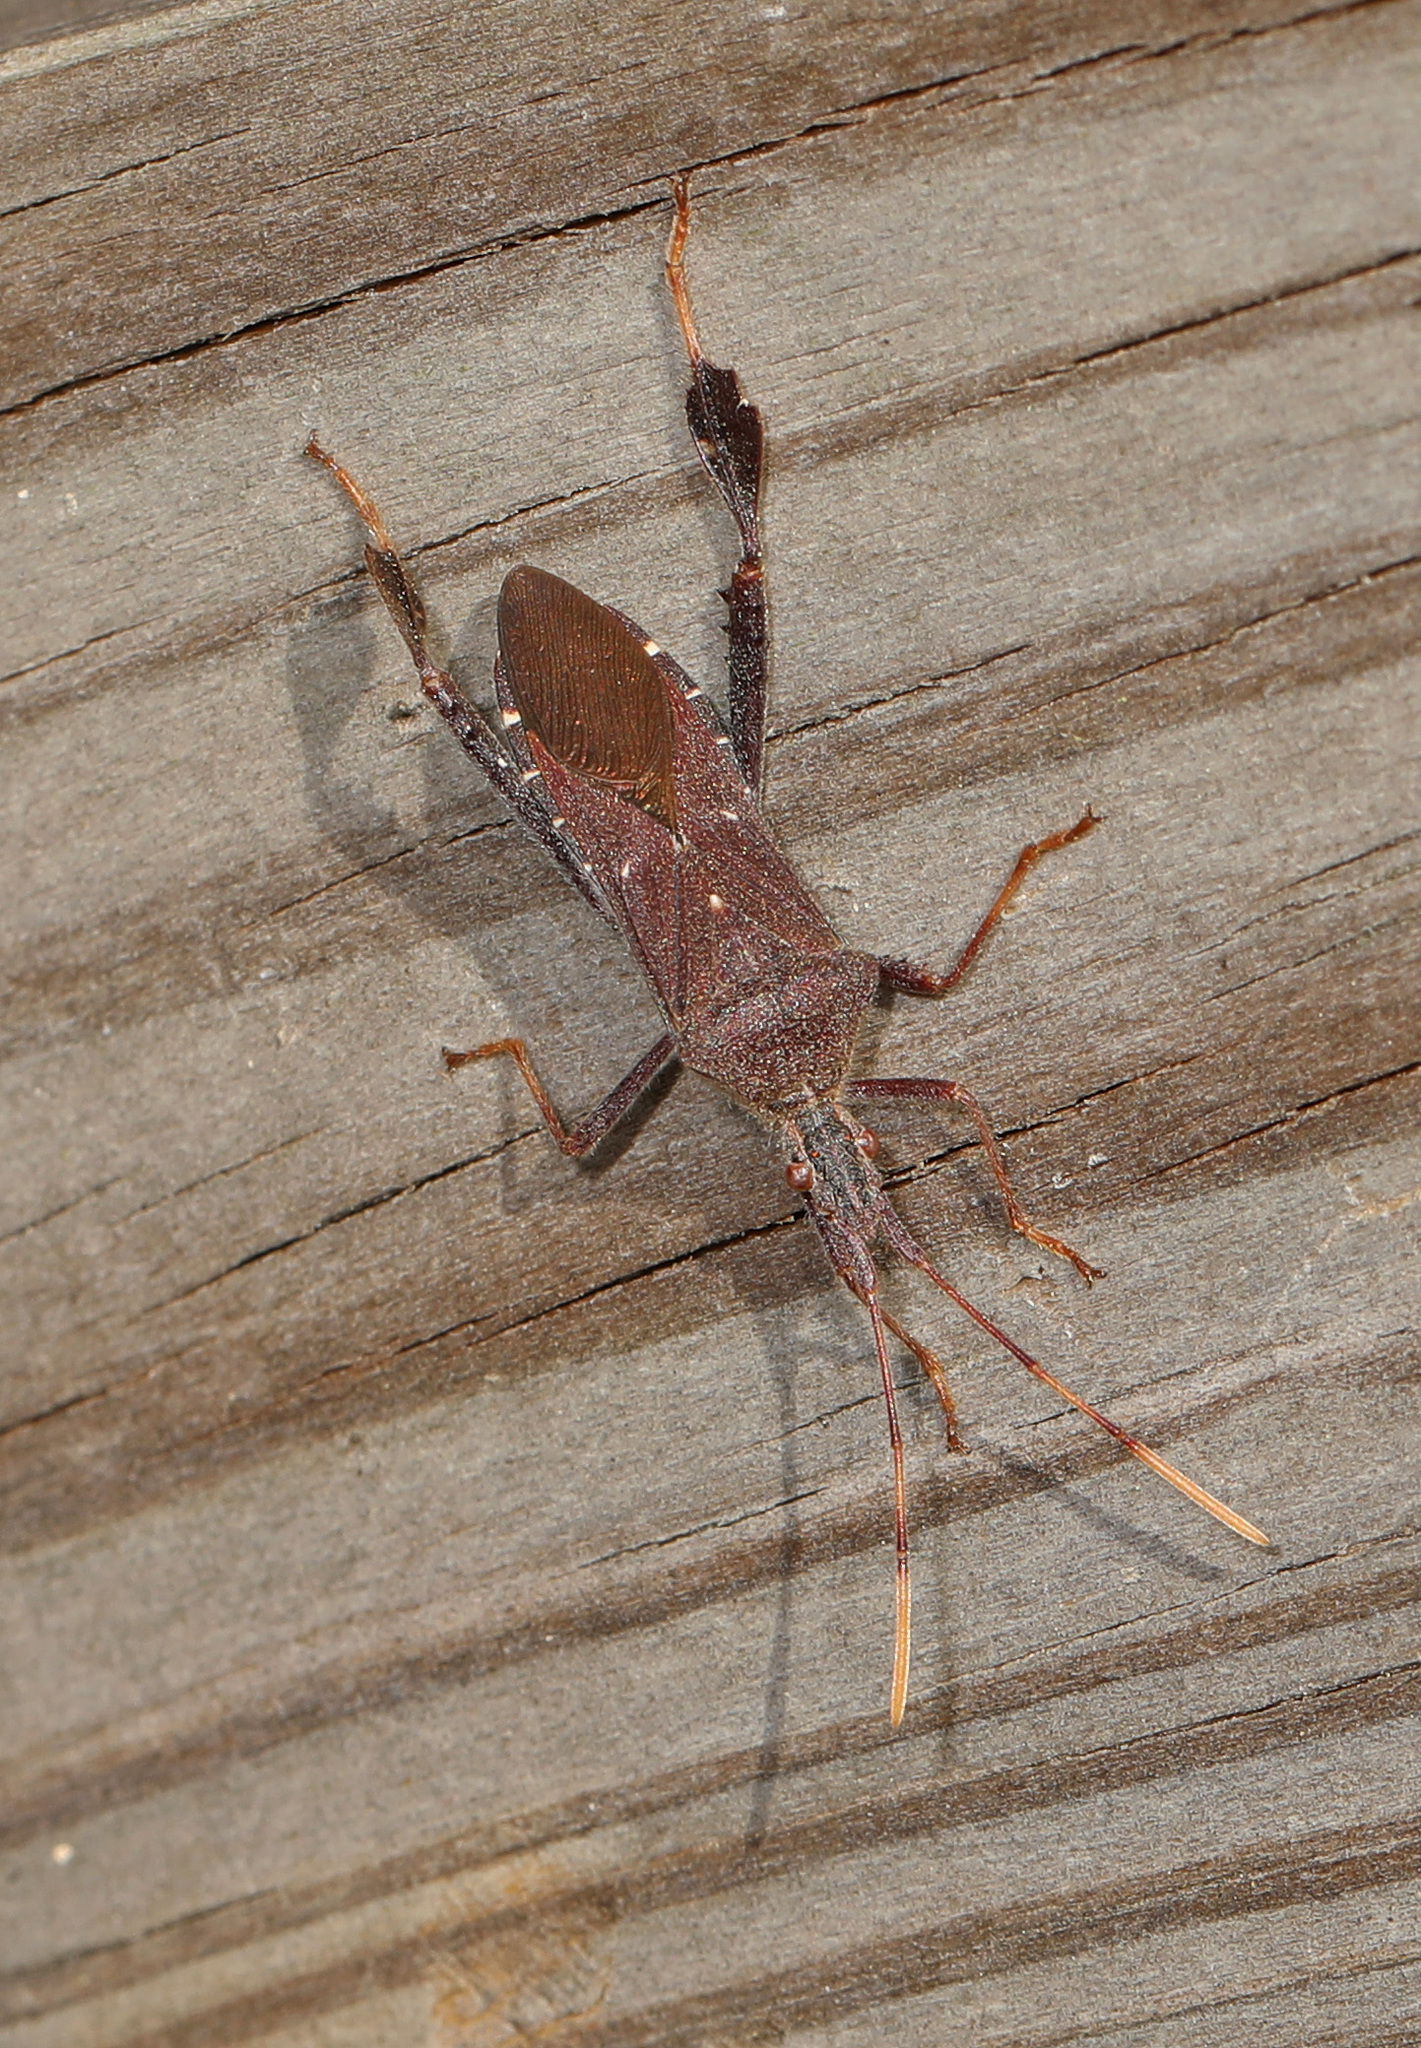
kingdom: Animalia
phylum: Arthropoda
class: Insecta
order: Hemiptera
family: Coreidae
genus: Leptoglossus
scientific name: Leptoglossus oppositus
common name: Northern leaf-footed bug
